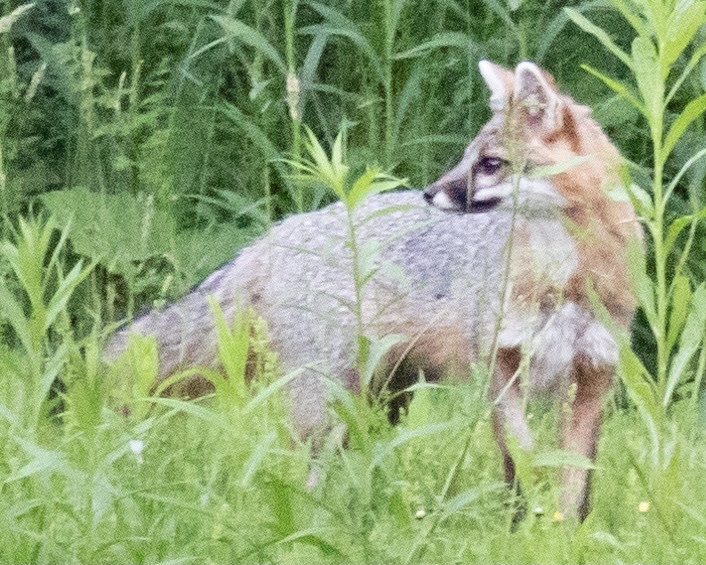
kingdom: Animalia
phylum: Chordata
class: Mammalia
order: Carnivora
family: Canidae
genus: Urocyon
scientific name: Urocyon cinereoargenteus
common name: Gray fox
